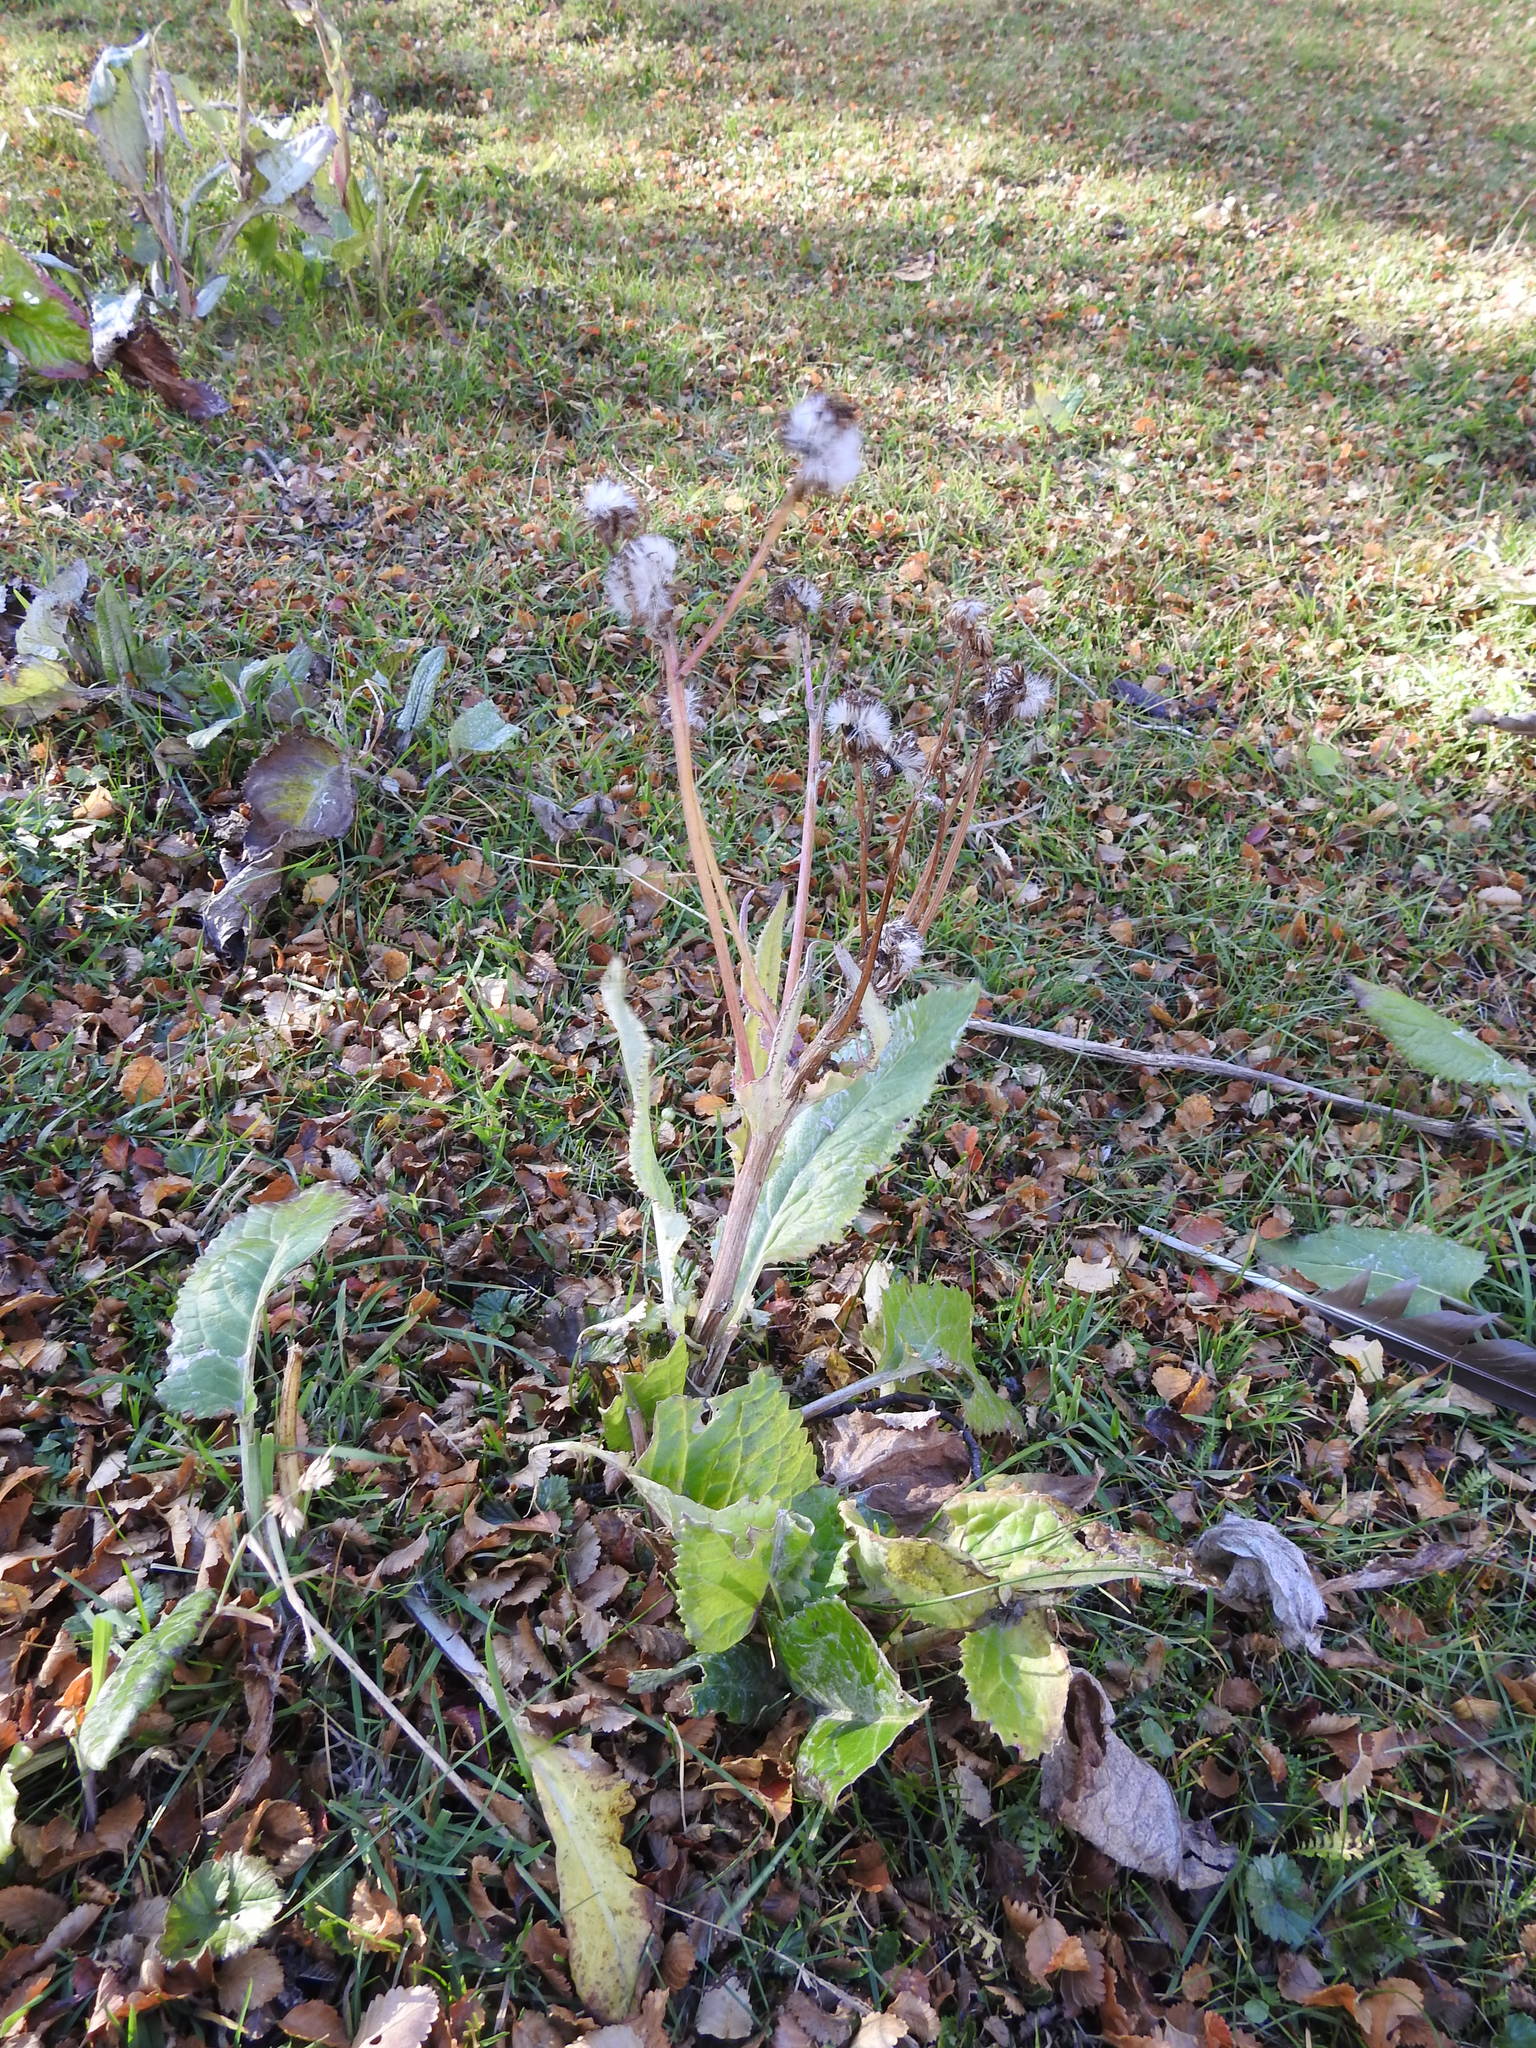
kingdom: Plantae
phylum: Tracheophyta
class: Magnoliopsida
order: Asterales
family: Asteraceae
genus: Senecio
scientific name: Senecio smithii
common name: Magellan ragwort
